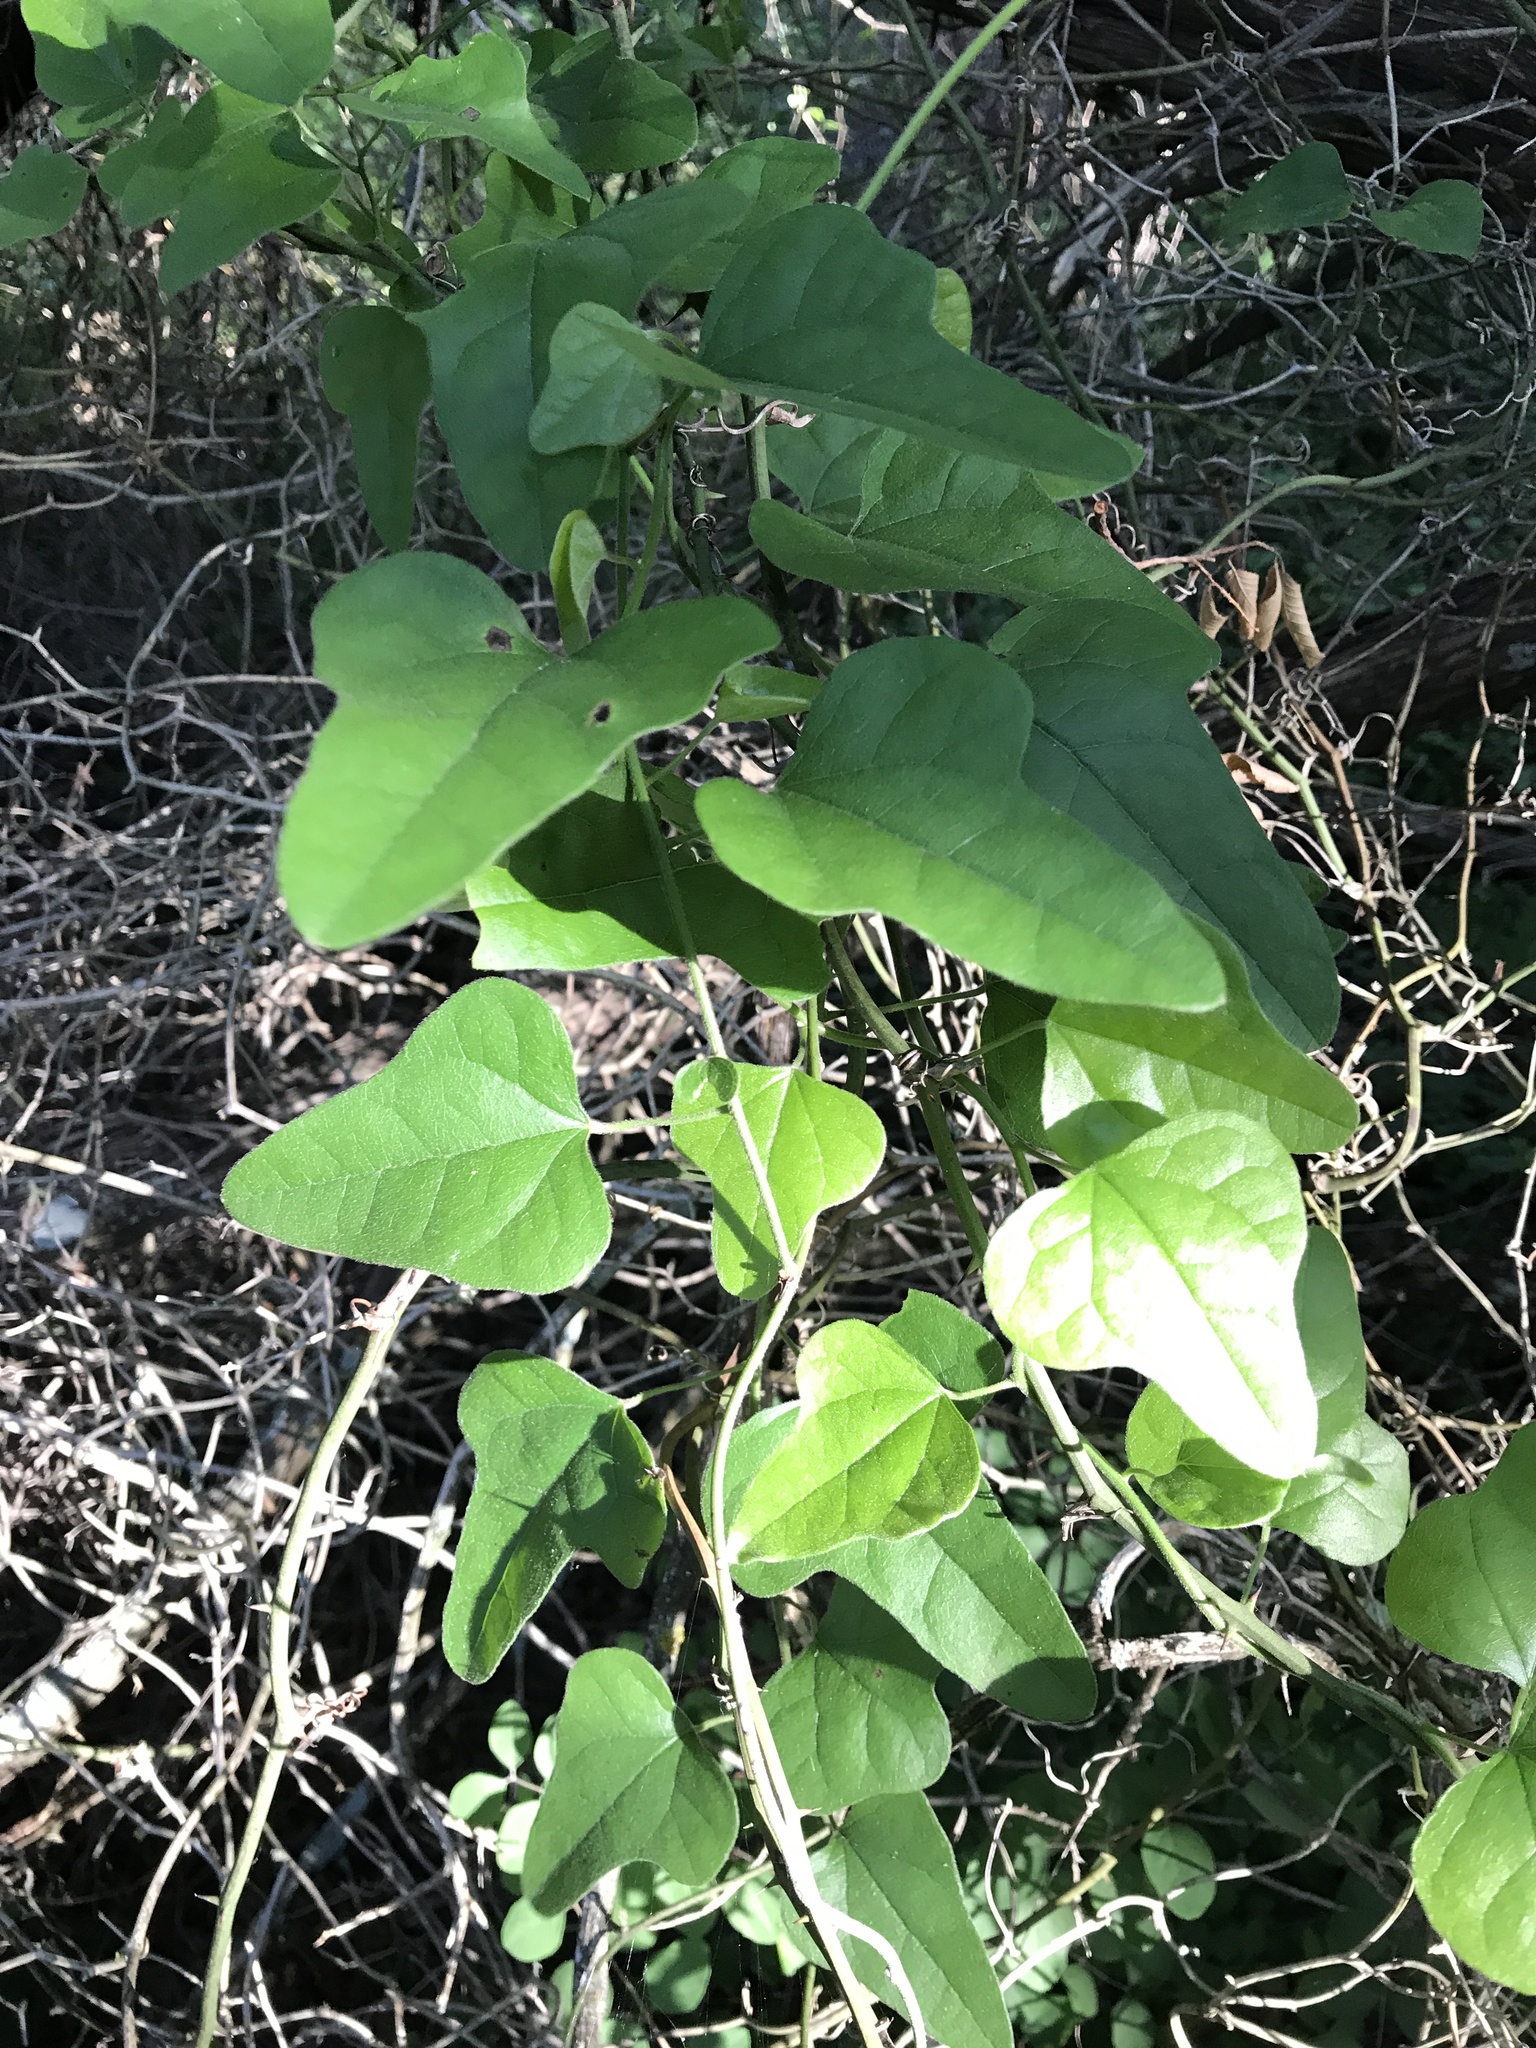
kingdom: Plantae
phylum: Tracheophyta
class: Magnoliopsida
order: Ranunculales
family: Menispermaceae
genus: Cocculus
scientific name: Cocculus carolinus
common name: Carolina moonseed
